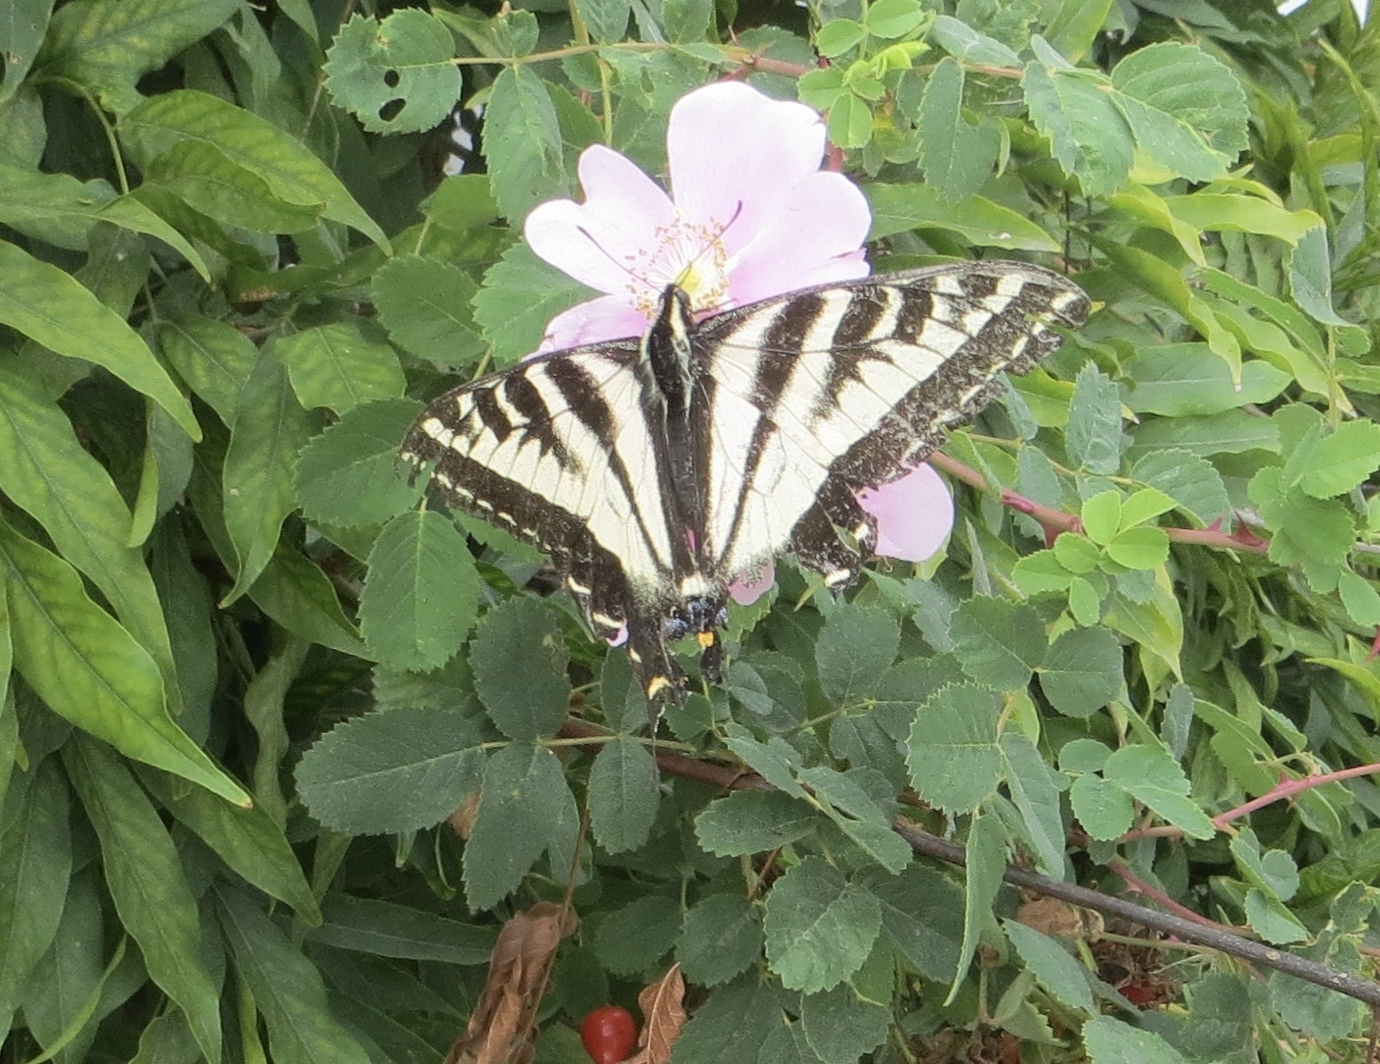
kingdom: Animalia
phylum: Arthropoda
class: Insecta
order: Lepidoptera
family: Papilionidae
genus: Papilio
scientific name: Papilio eurymedon
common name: Pale tiger swallowtail
